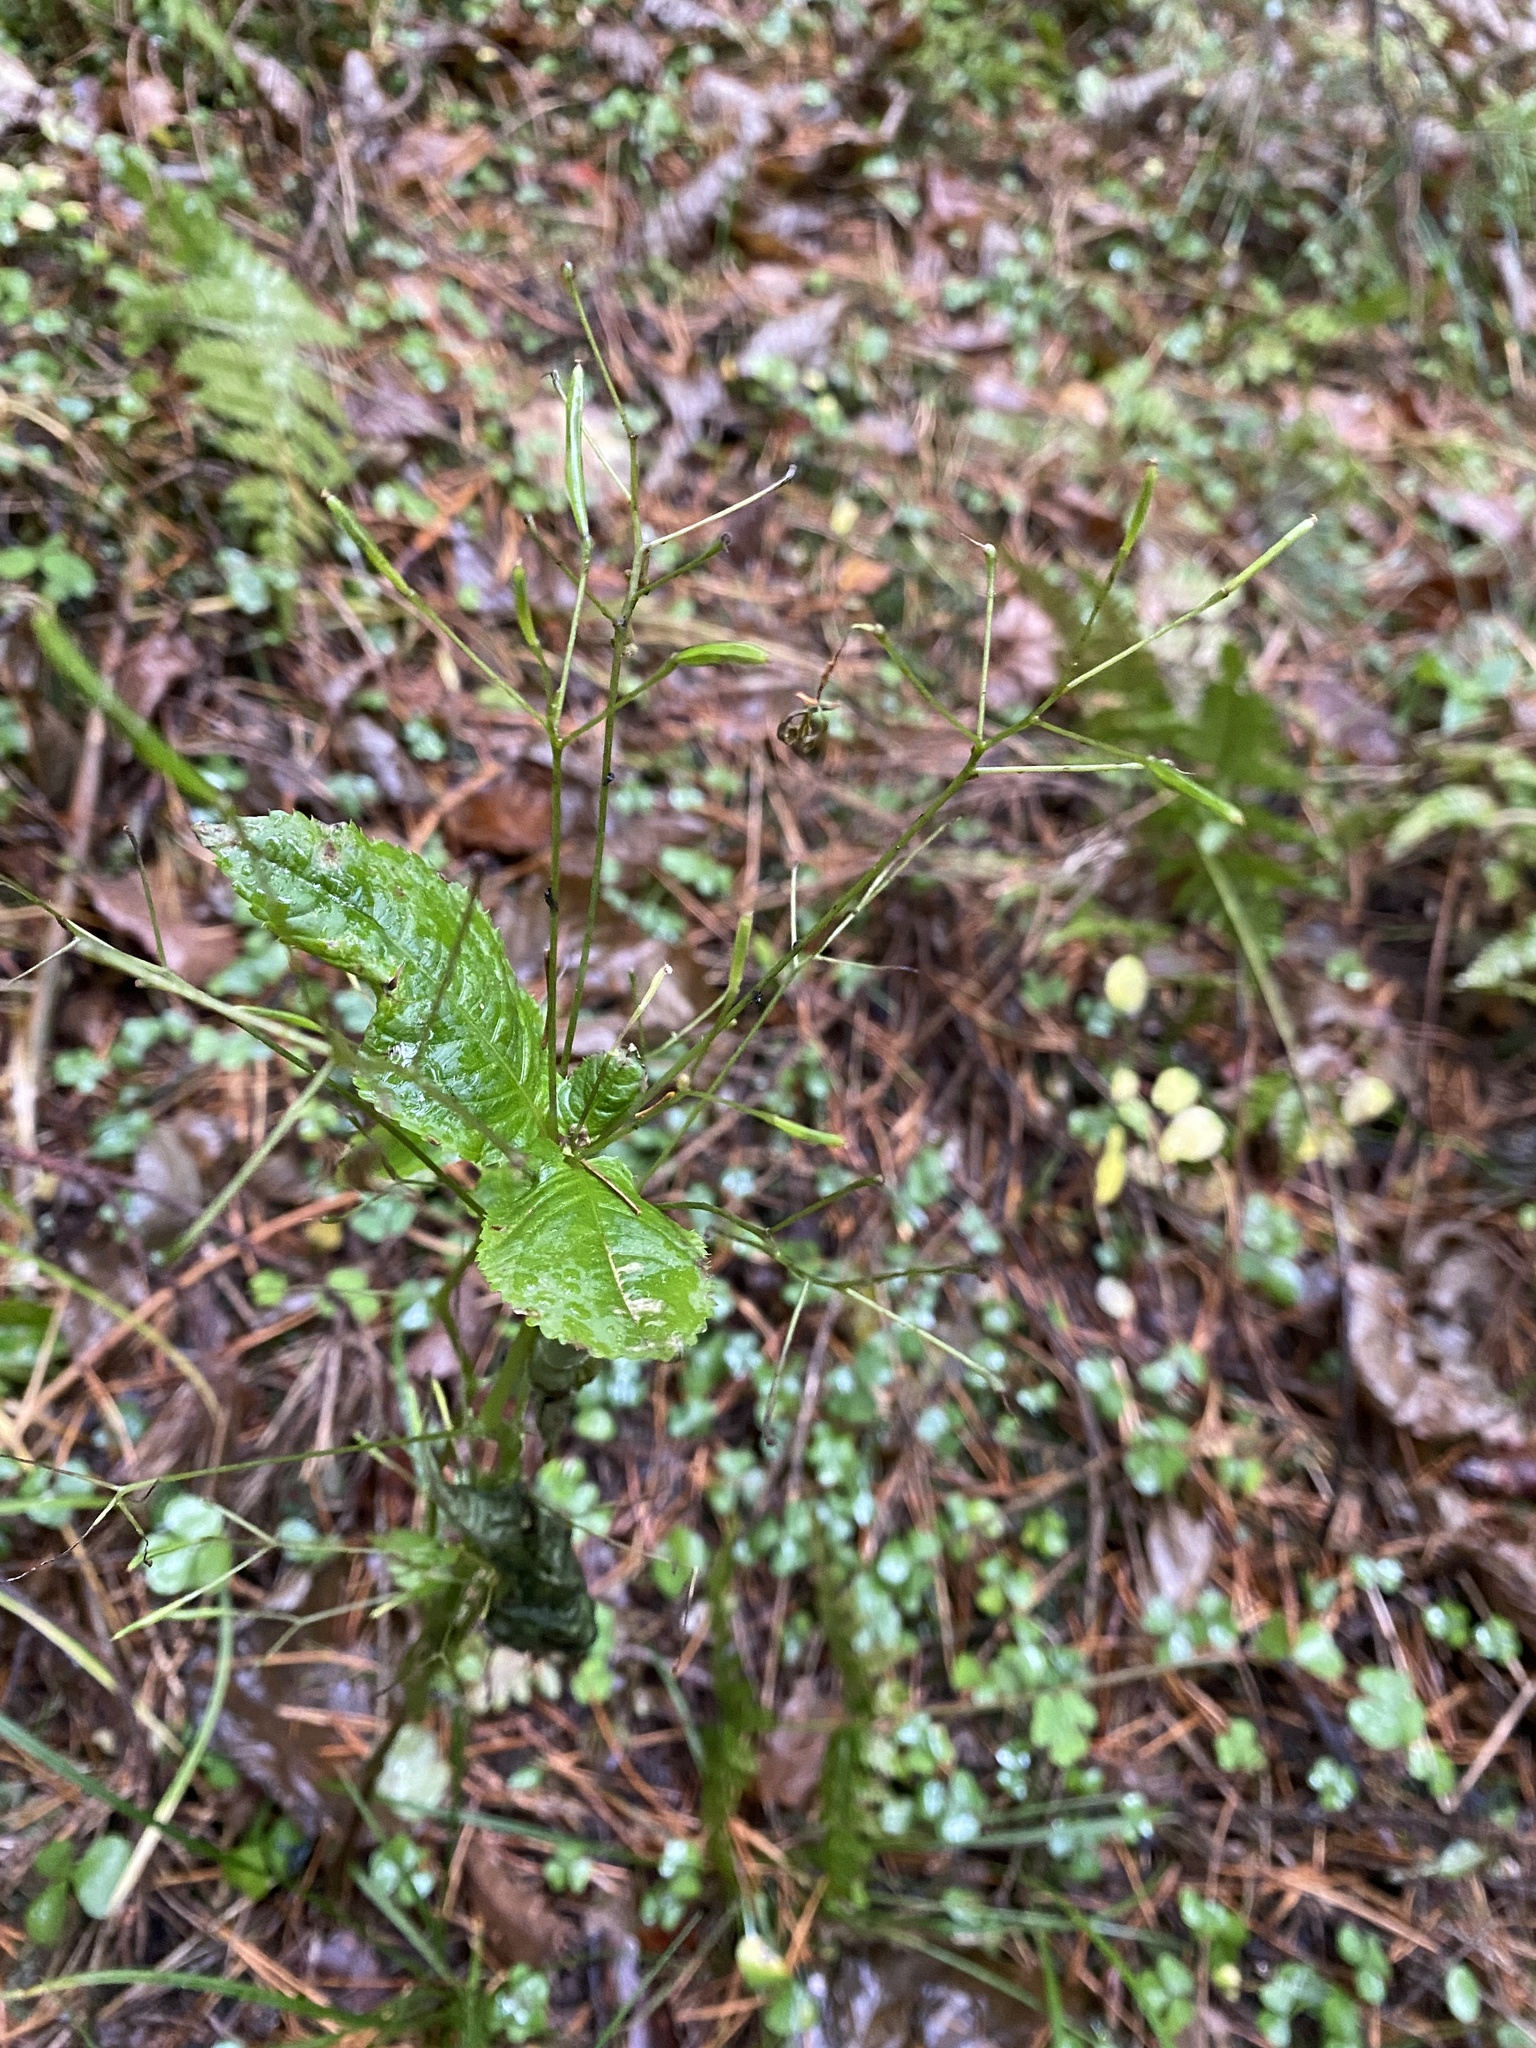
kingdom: Plantae
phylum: Tracheophyta
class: Magnoliopsida
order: Ericales
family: Balsaminaceae
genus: Impatiens
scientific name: Impatiens parviflora
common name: Small balsam
